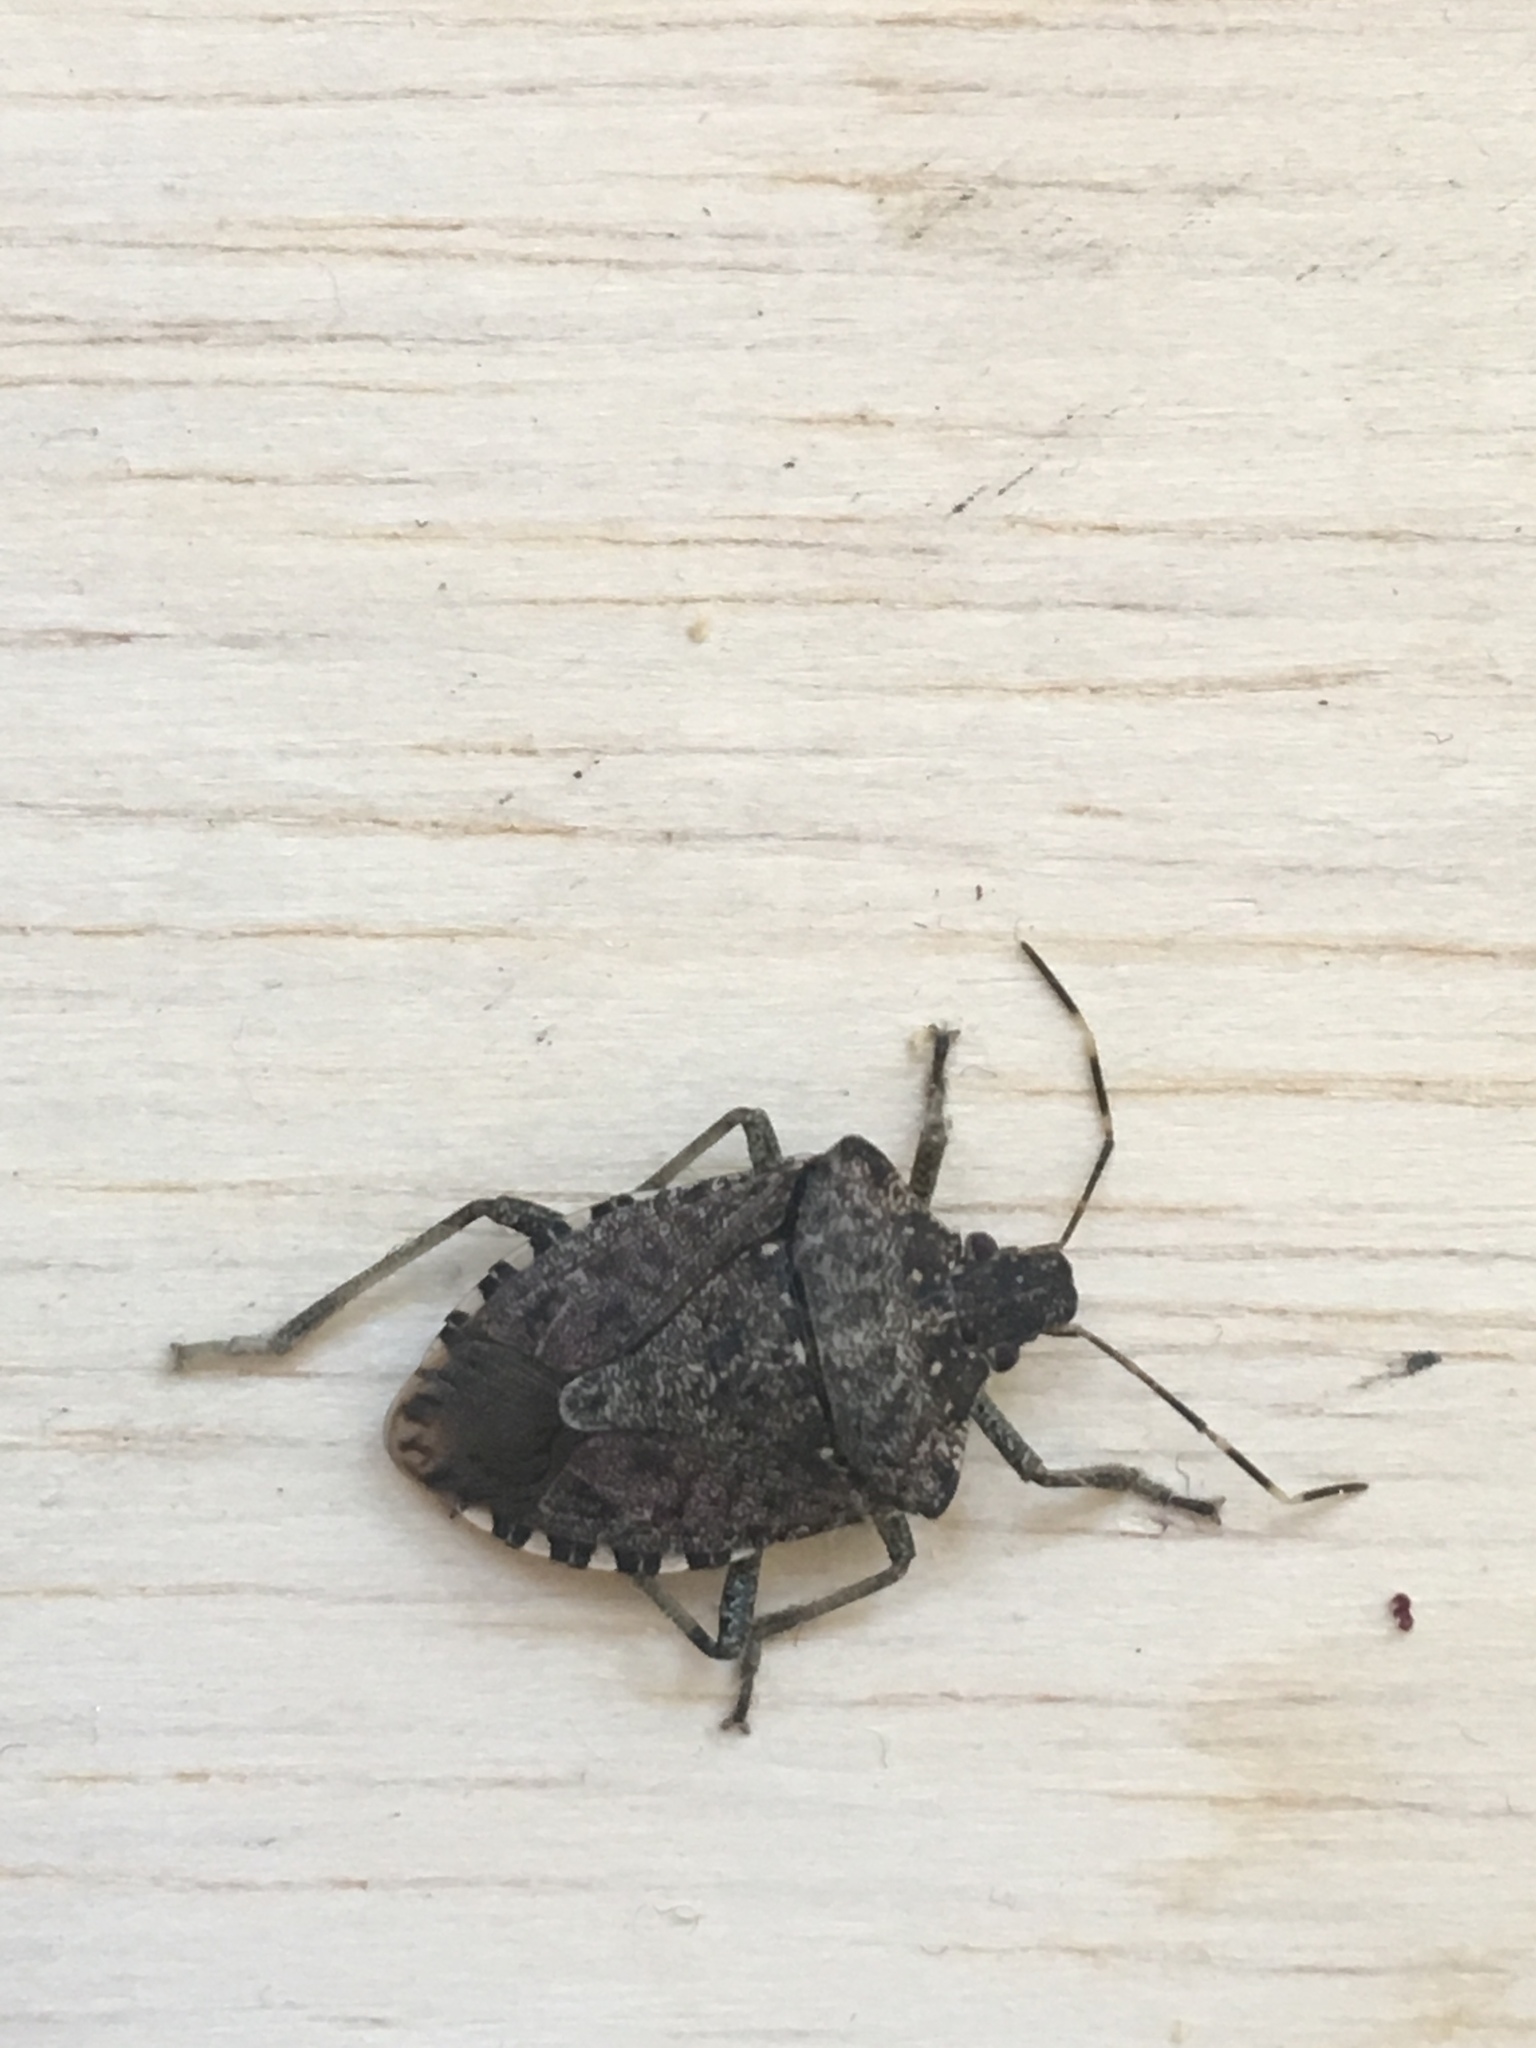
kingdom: Animalia
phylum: Arthropoda
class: Insecta
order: Hemiptera
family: Pentatomidae
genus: Halyomorpha
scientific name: Halyomorpha halys
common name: Brown marmorated stink bug
